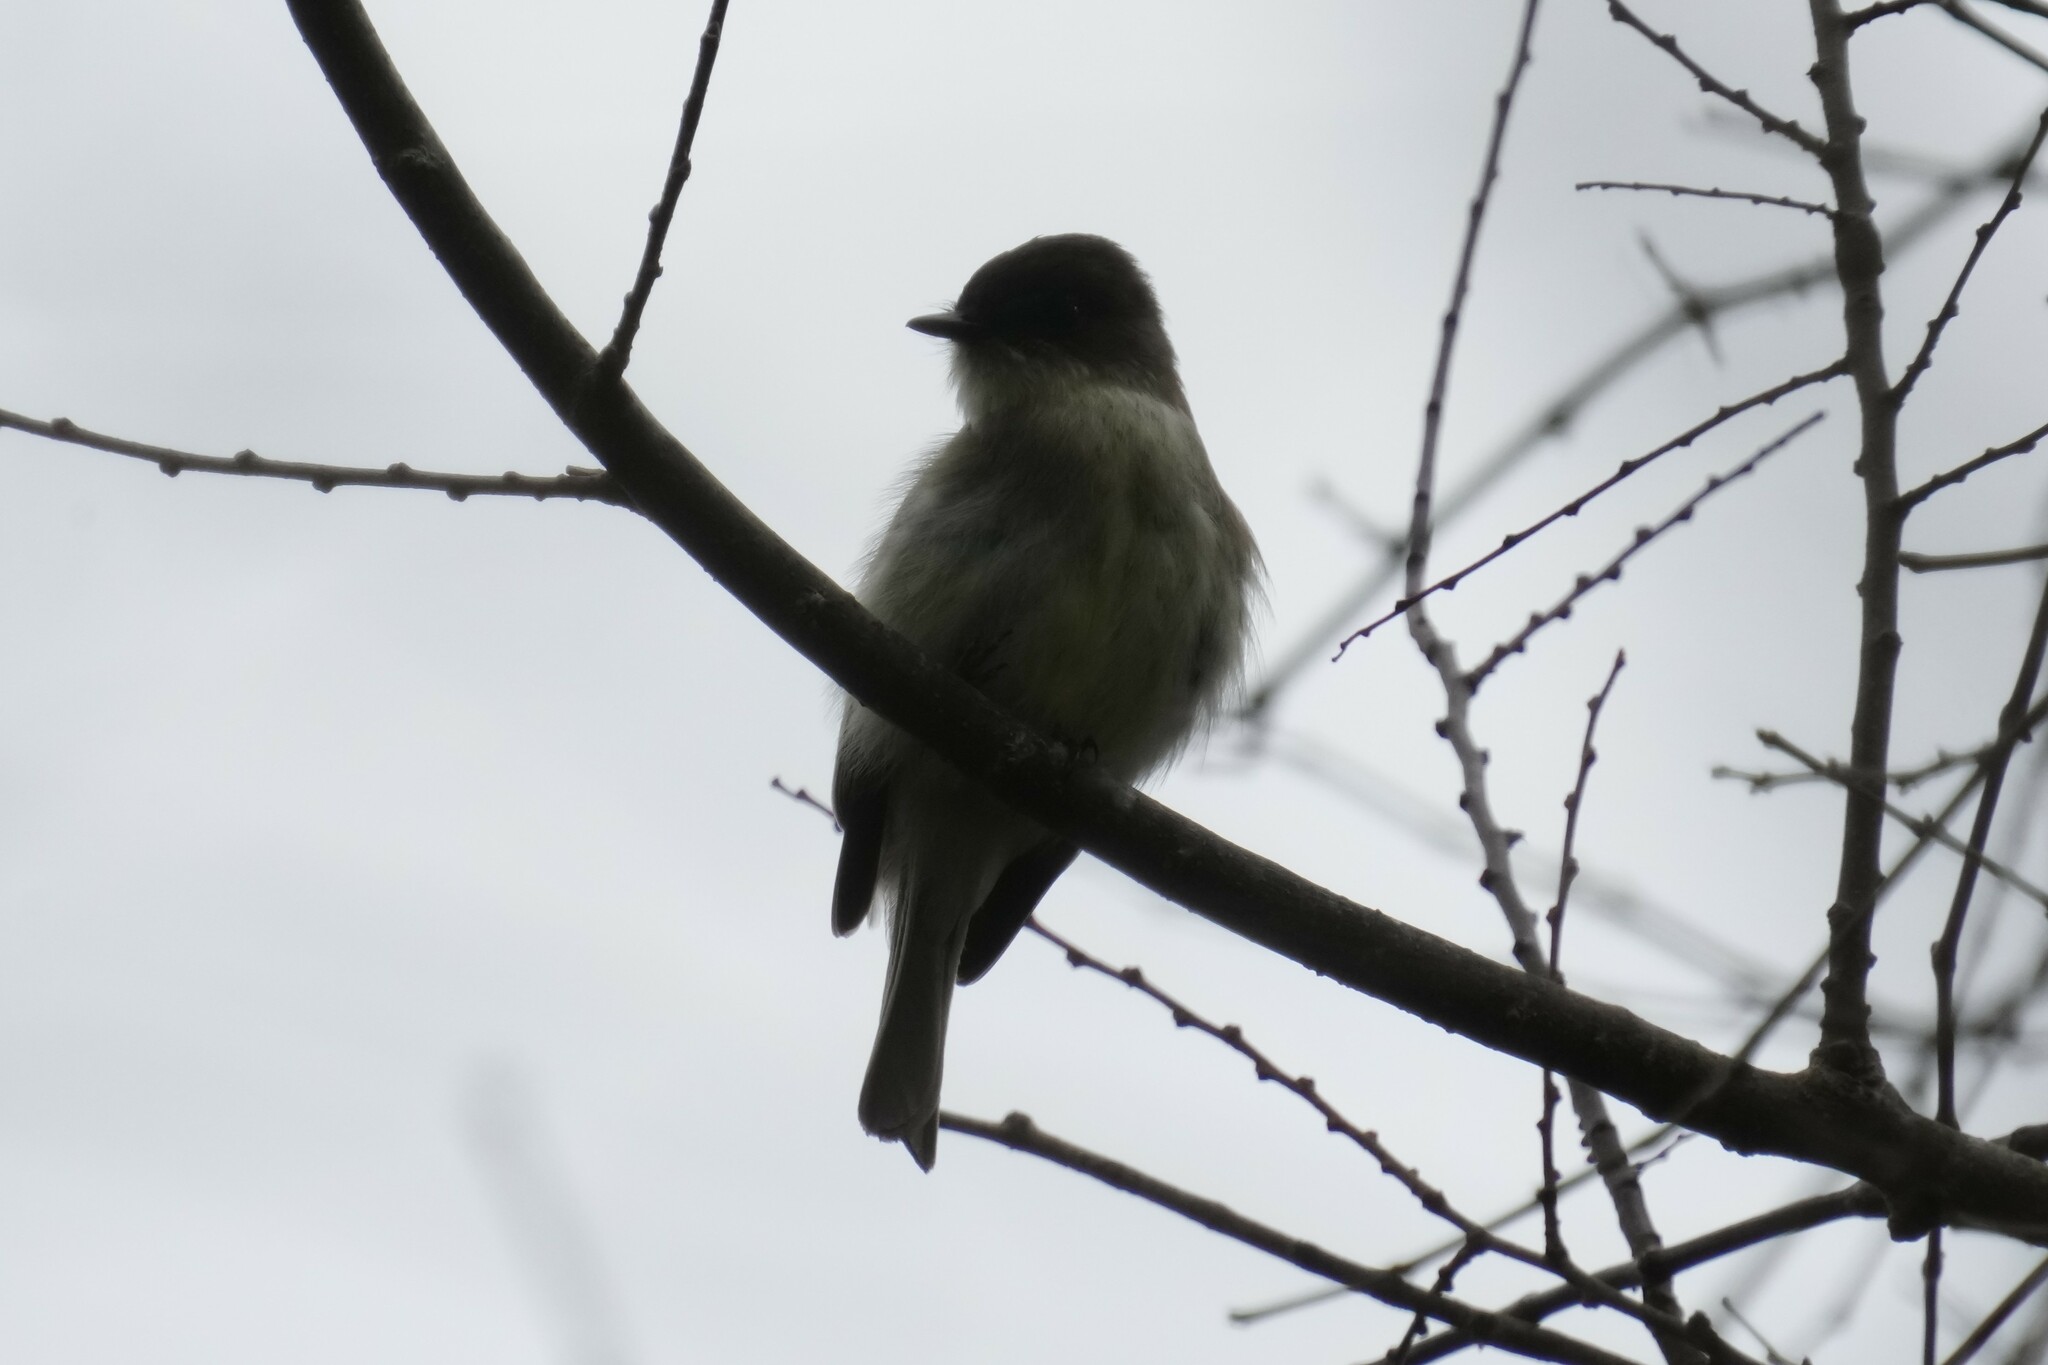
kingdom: Animalia
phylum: Chordata
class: Aves
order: Passeriformes
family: Tyrannidae
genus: Sayornis
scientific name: Sayornis phoebe
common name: Eastern phoebe
